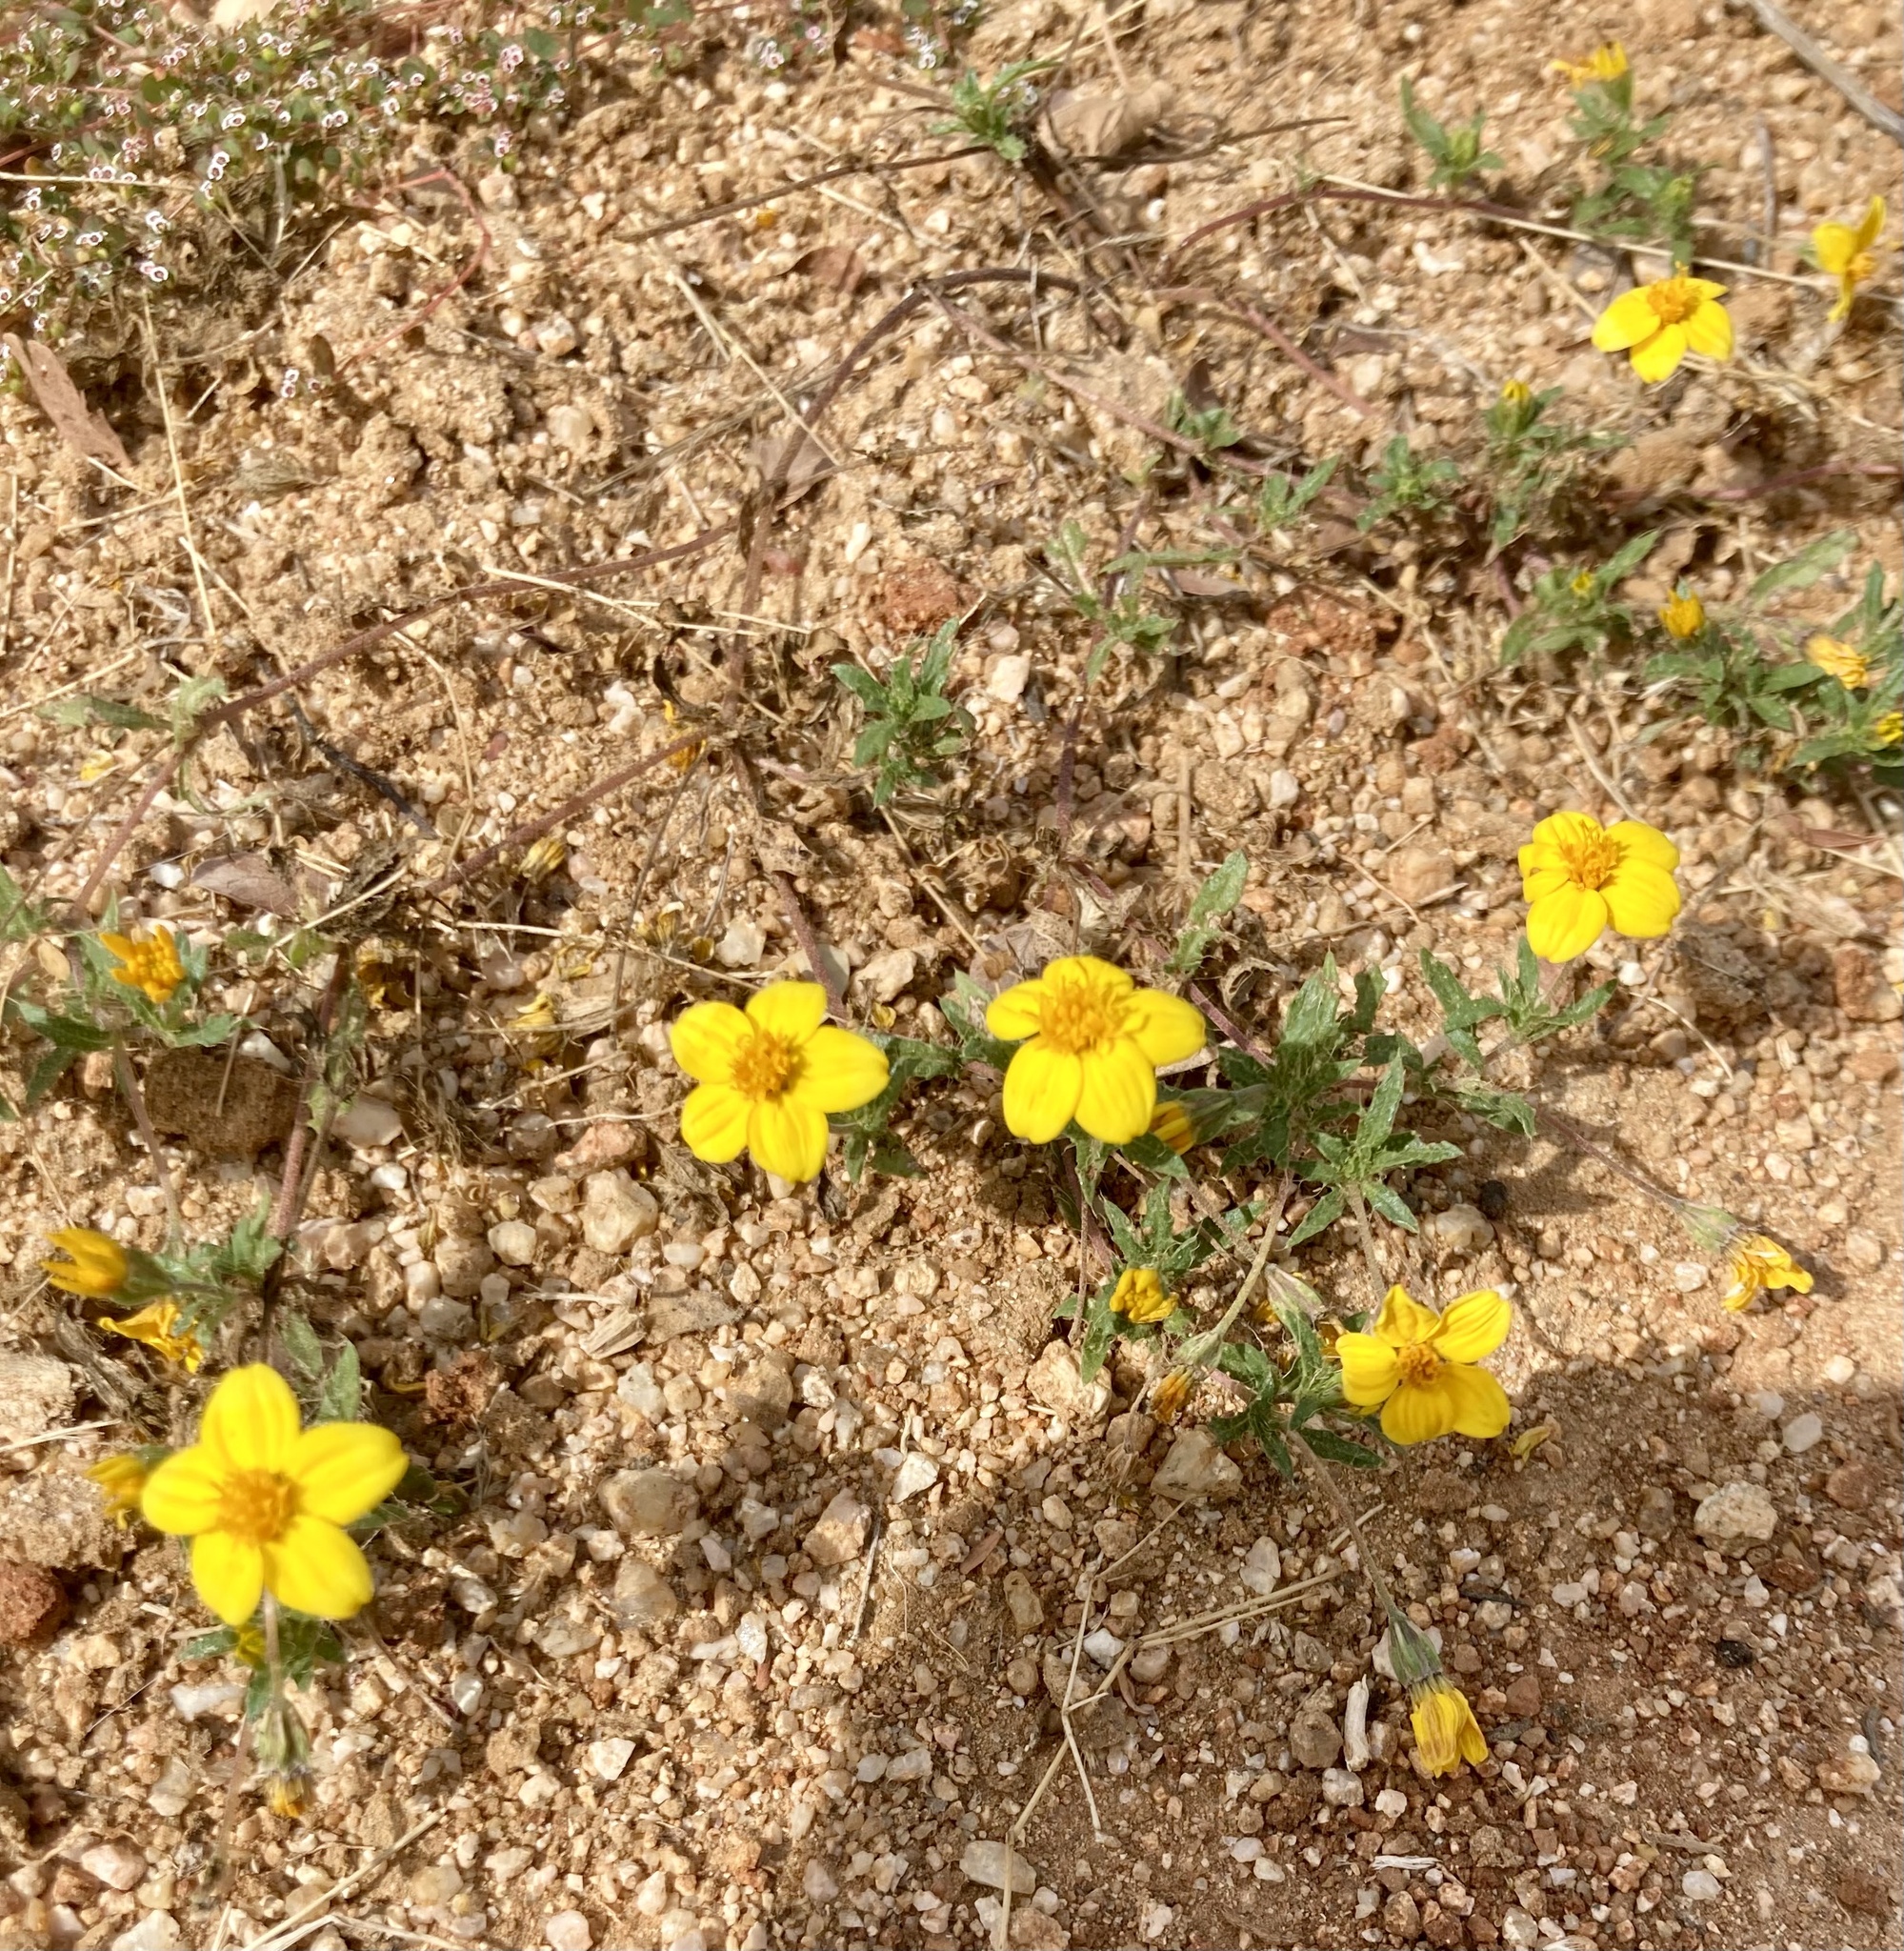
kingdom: Plantae
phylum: Tracheophyta
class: Magnoliopsida
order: Asterales
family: Asteraceae
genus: Pectis
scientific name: Pectis multiseta
